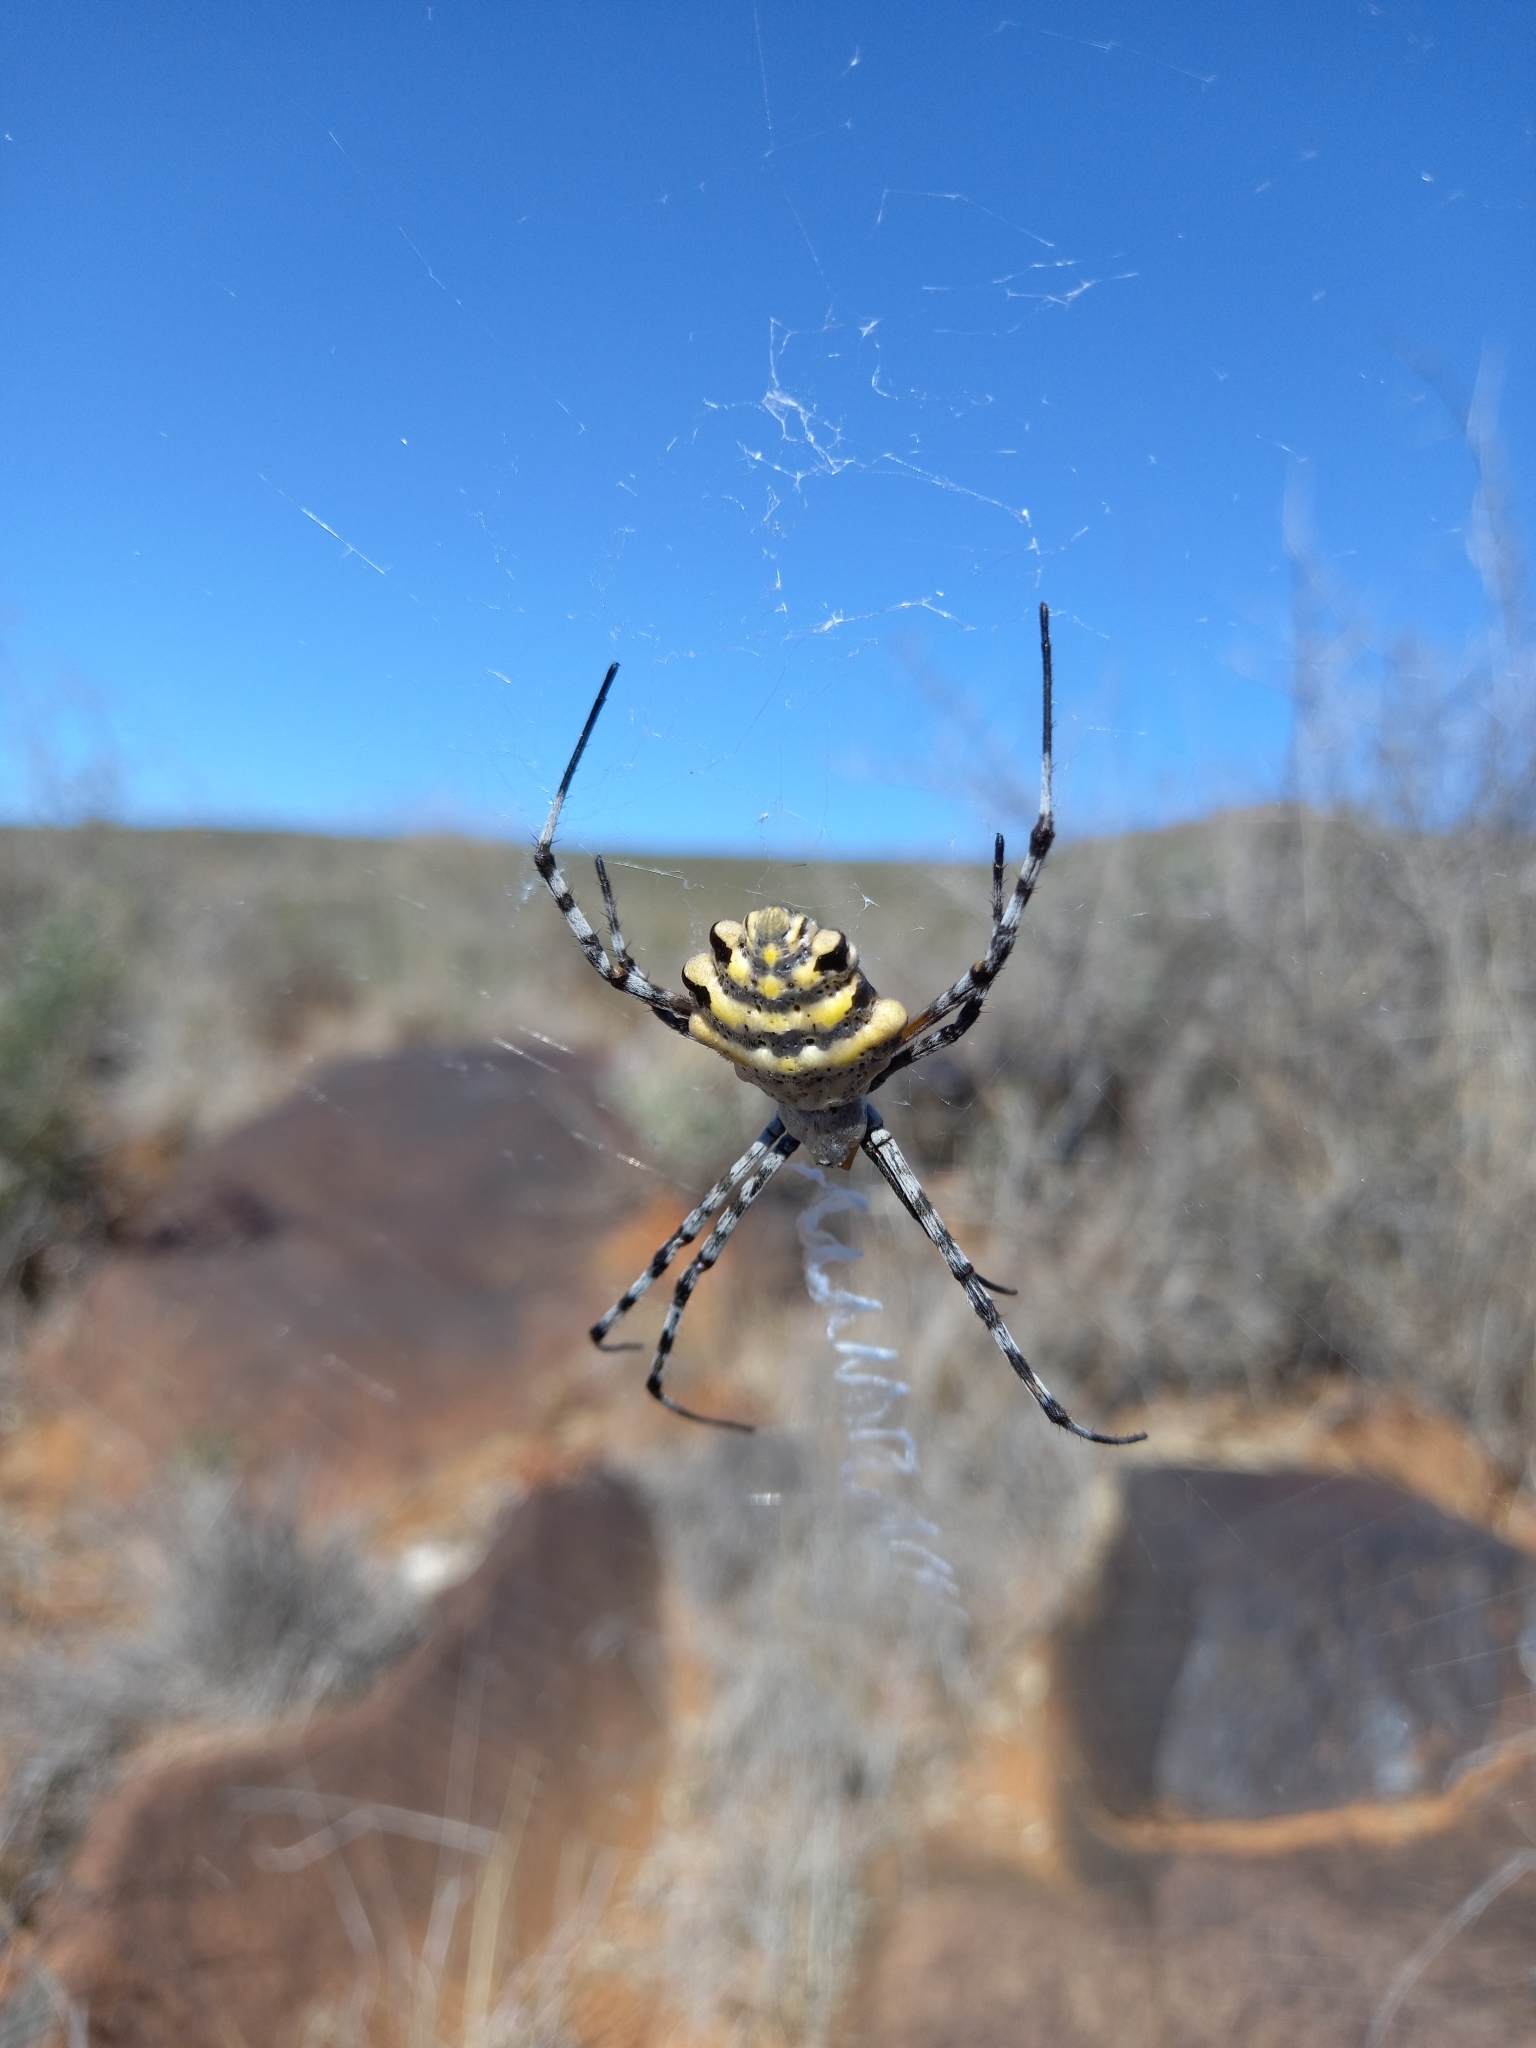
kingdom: Animalia
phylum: Arthropoda
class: Arachnida
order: Araneae
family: Araneidae
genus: Argiope
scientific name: Argiope australis
